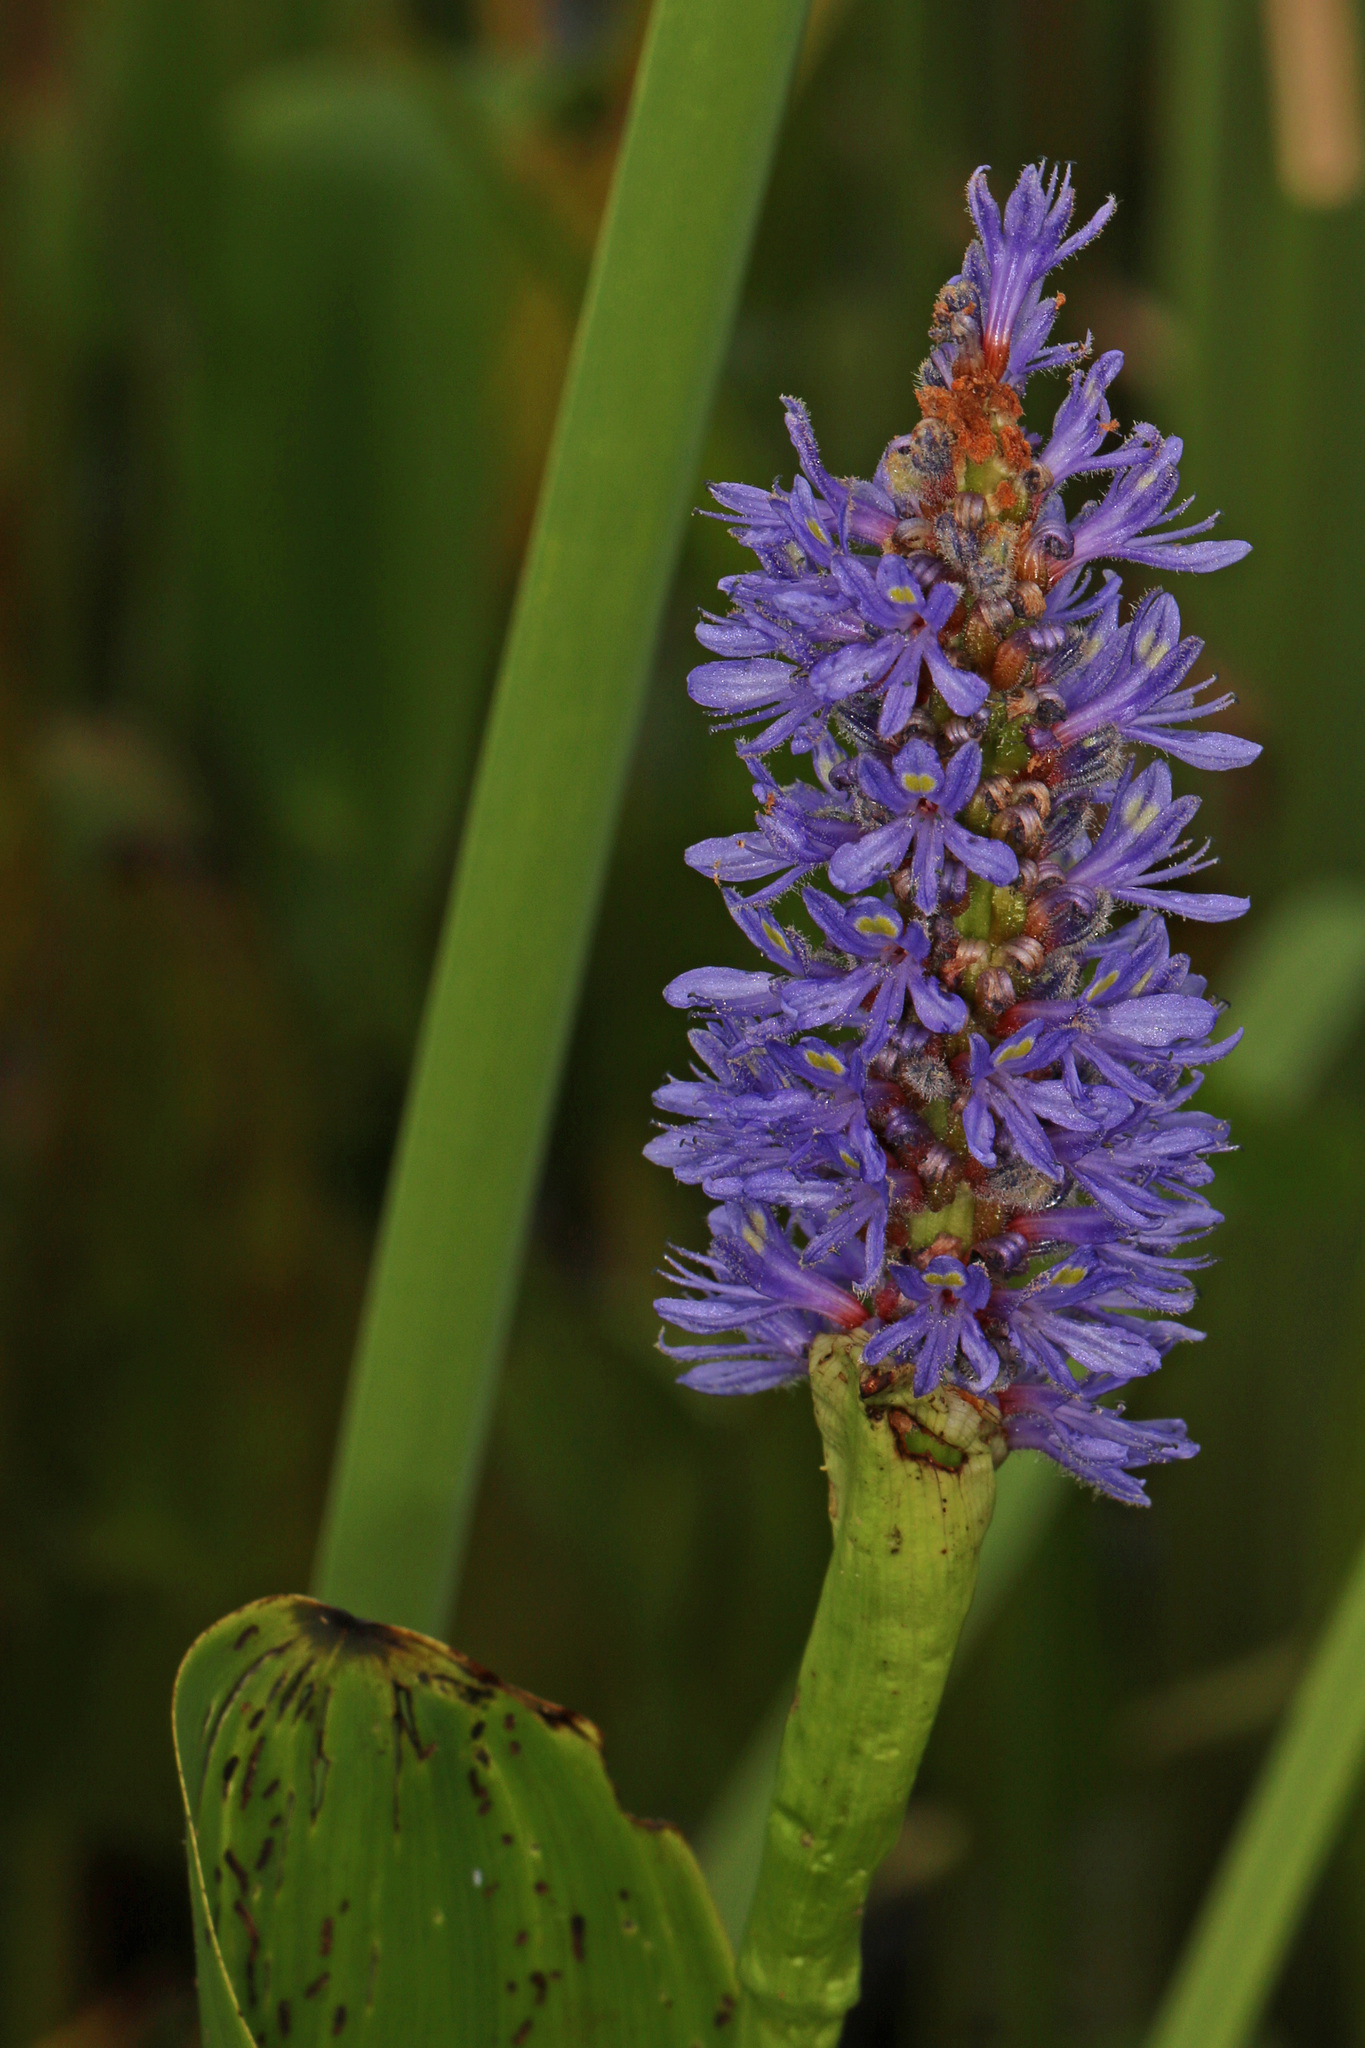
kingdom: Plantae
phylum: Tracheophyta
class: Liliopsida
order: Commelinales
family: Pontederiaceae
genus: Pontederia
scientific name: Pontederia cordata
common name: Pickerelweed
